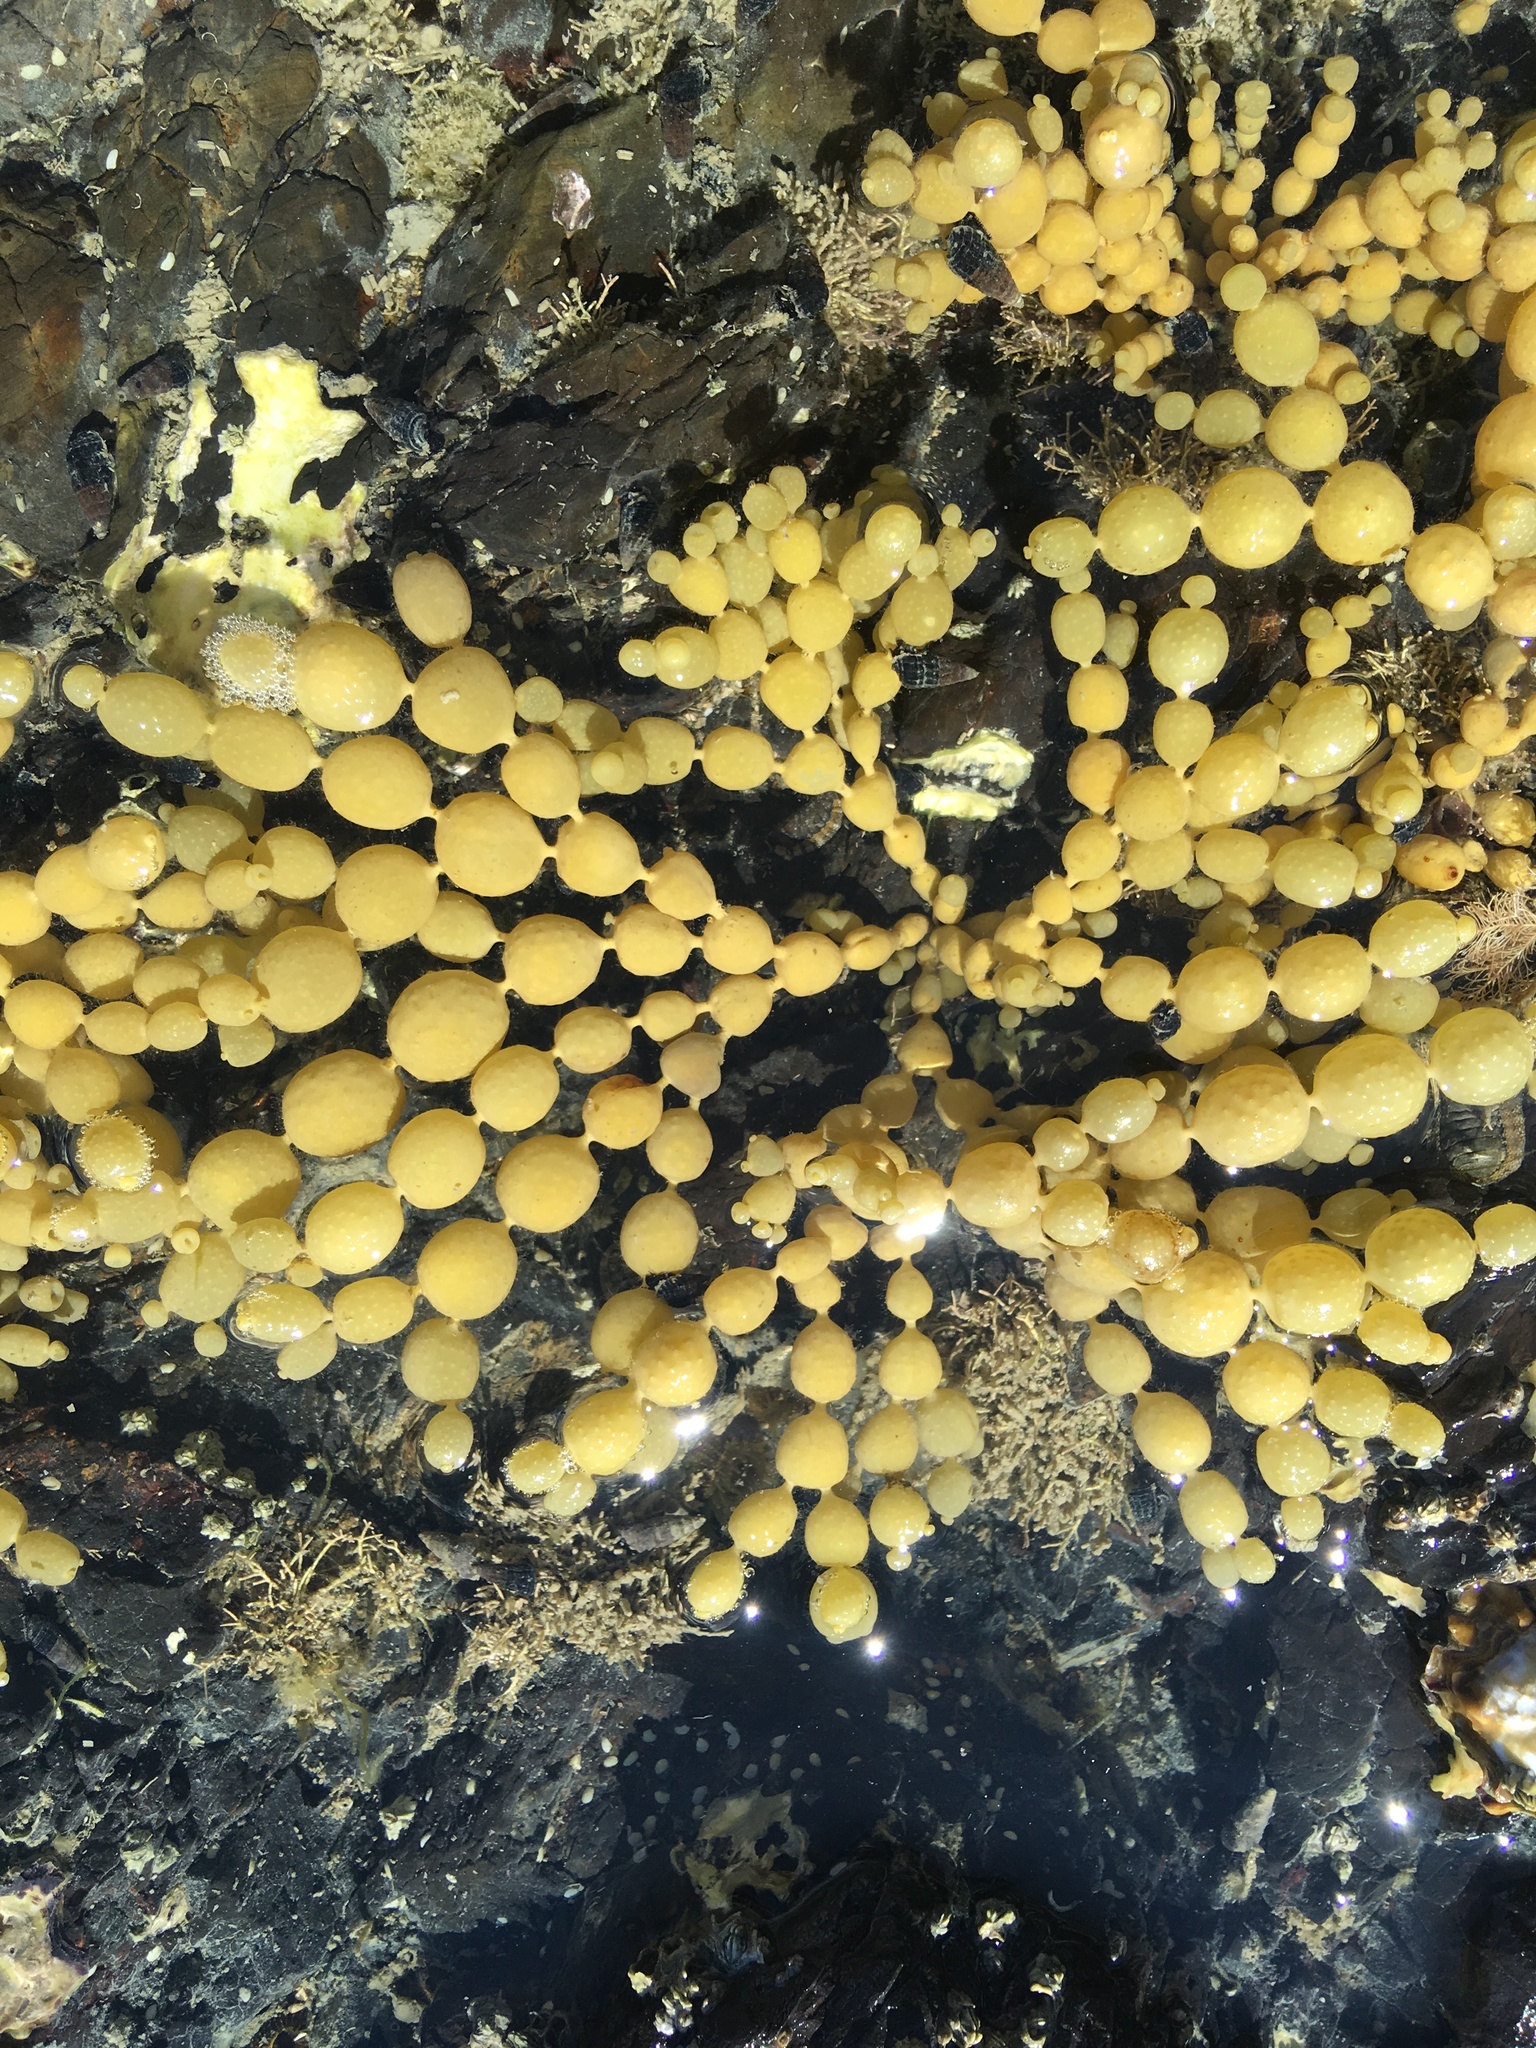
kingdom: Chromista
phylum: Ochrophyta
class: Phaeophyceae
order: Fucales
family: Hormosiraceae
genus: Hormosira
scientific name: Hormosira banksii
